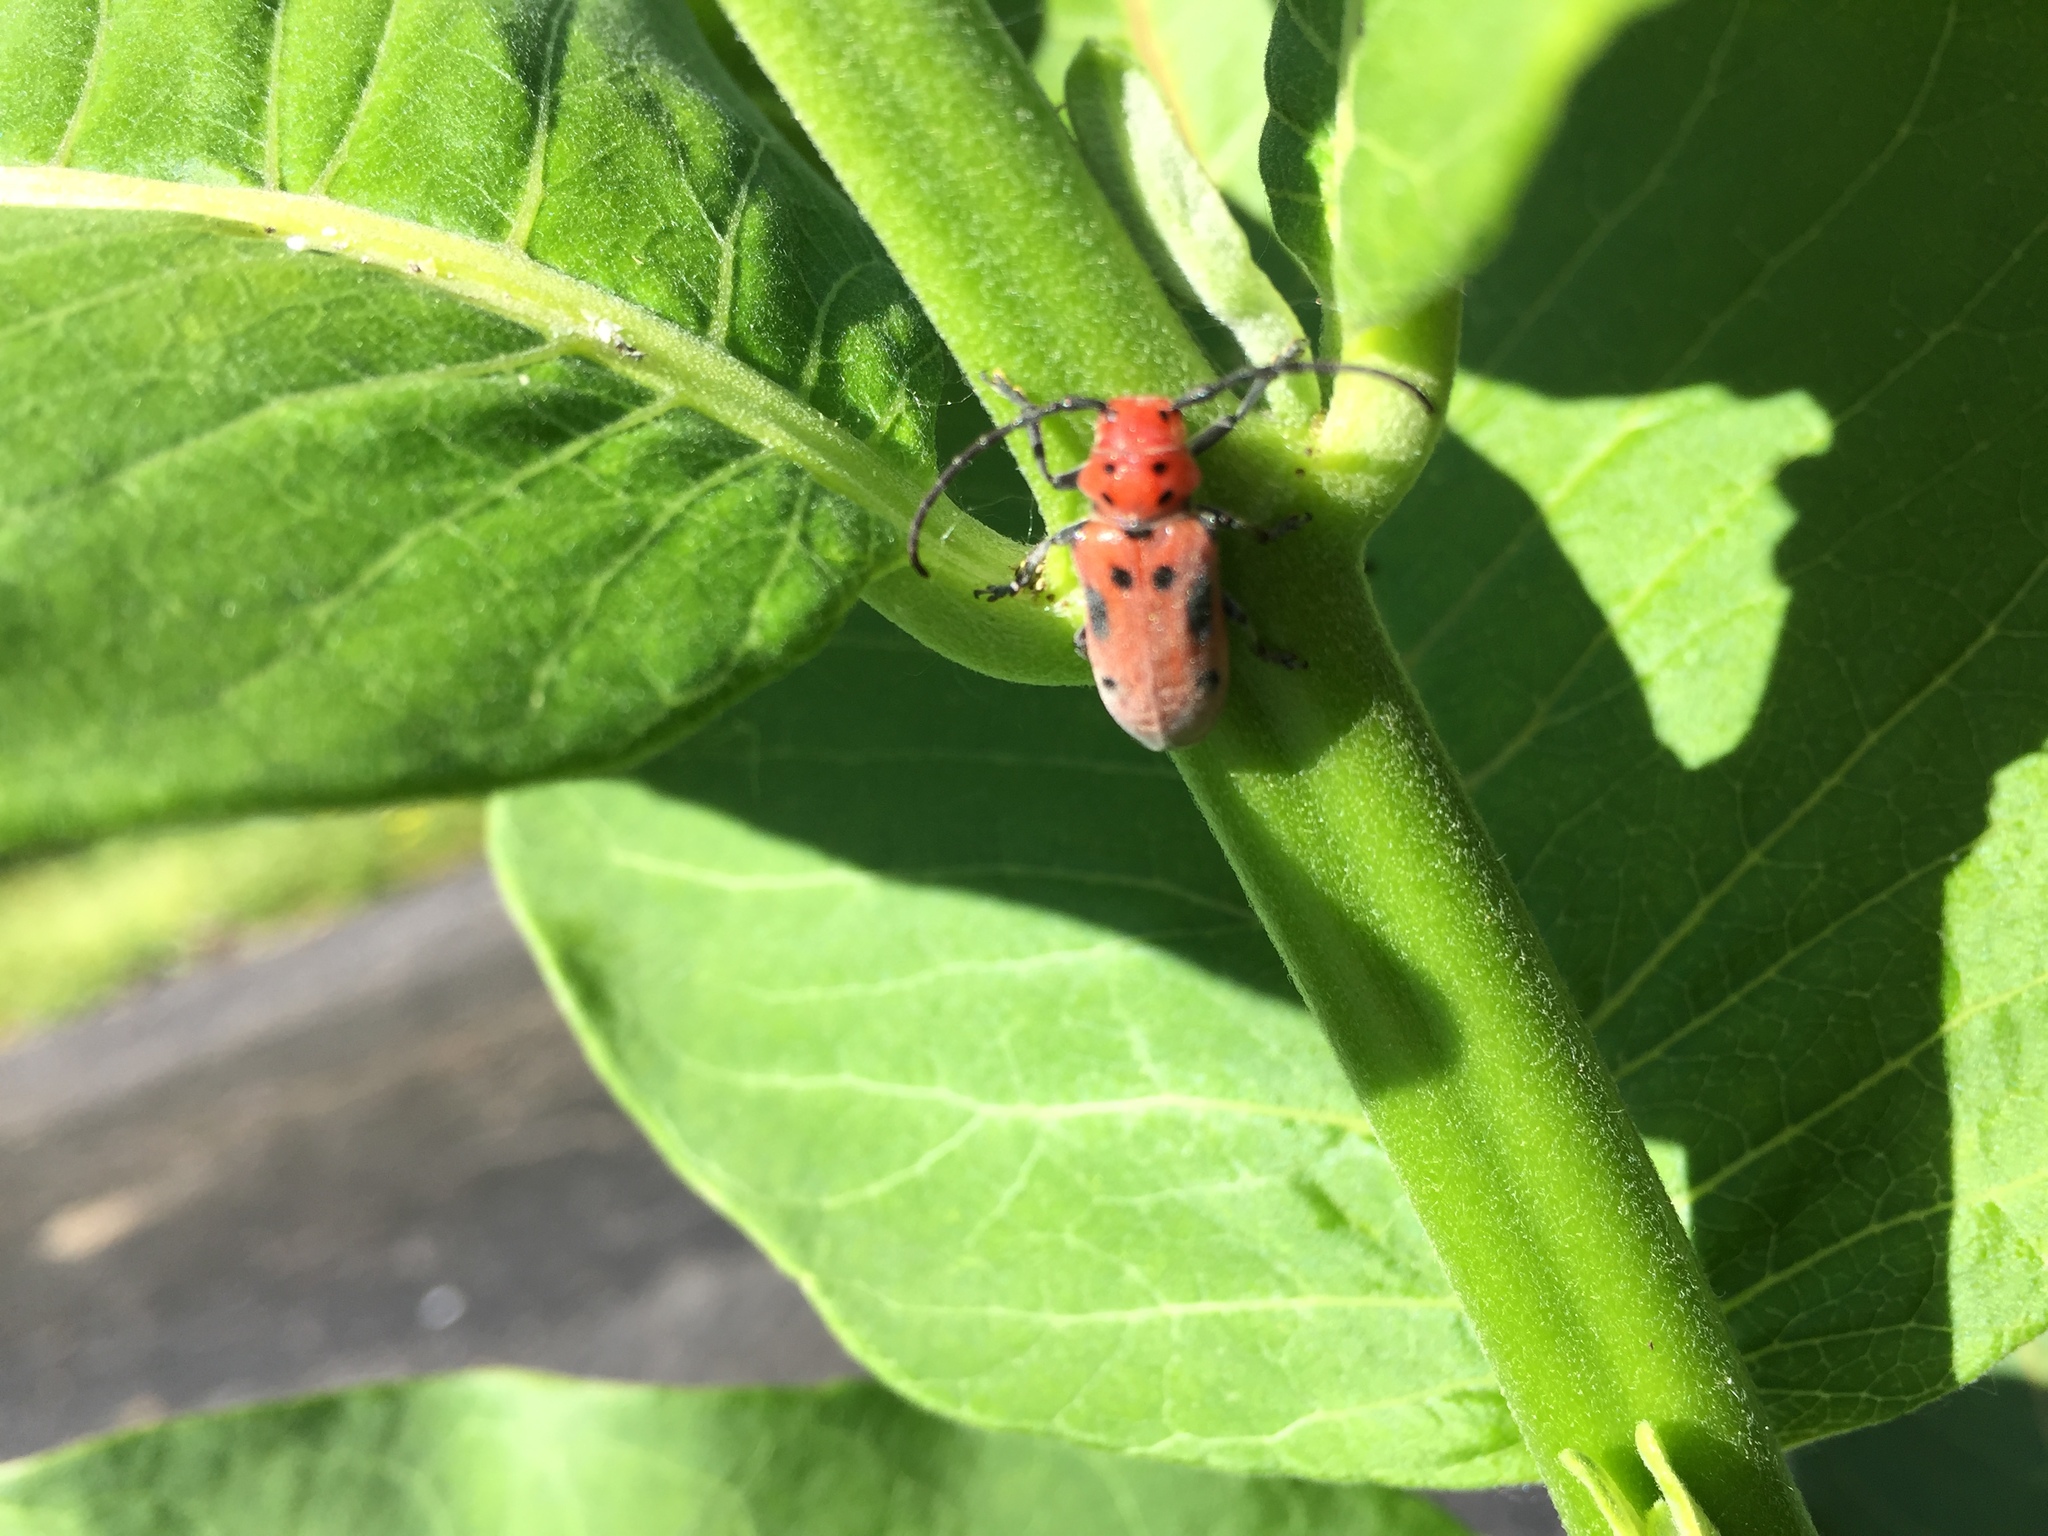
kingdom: Animalia
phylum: Arthropoda
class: Insecta
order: Coleoptera
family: Cerambycidae
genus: Tetraopes
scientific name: Tetraopes tetrophthalmus
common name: Red milkweed beetle
